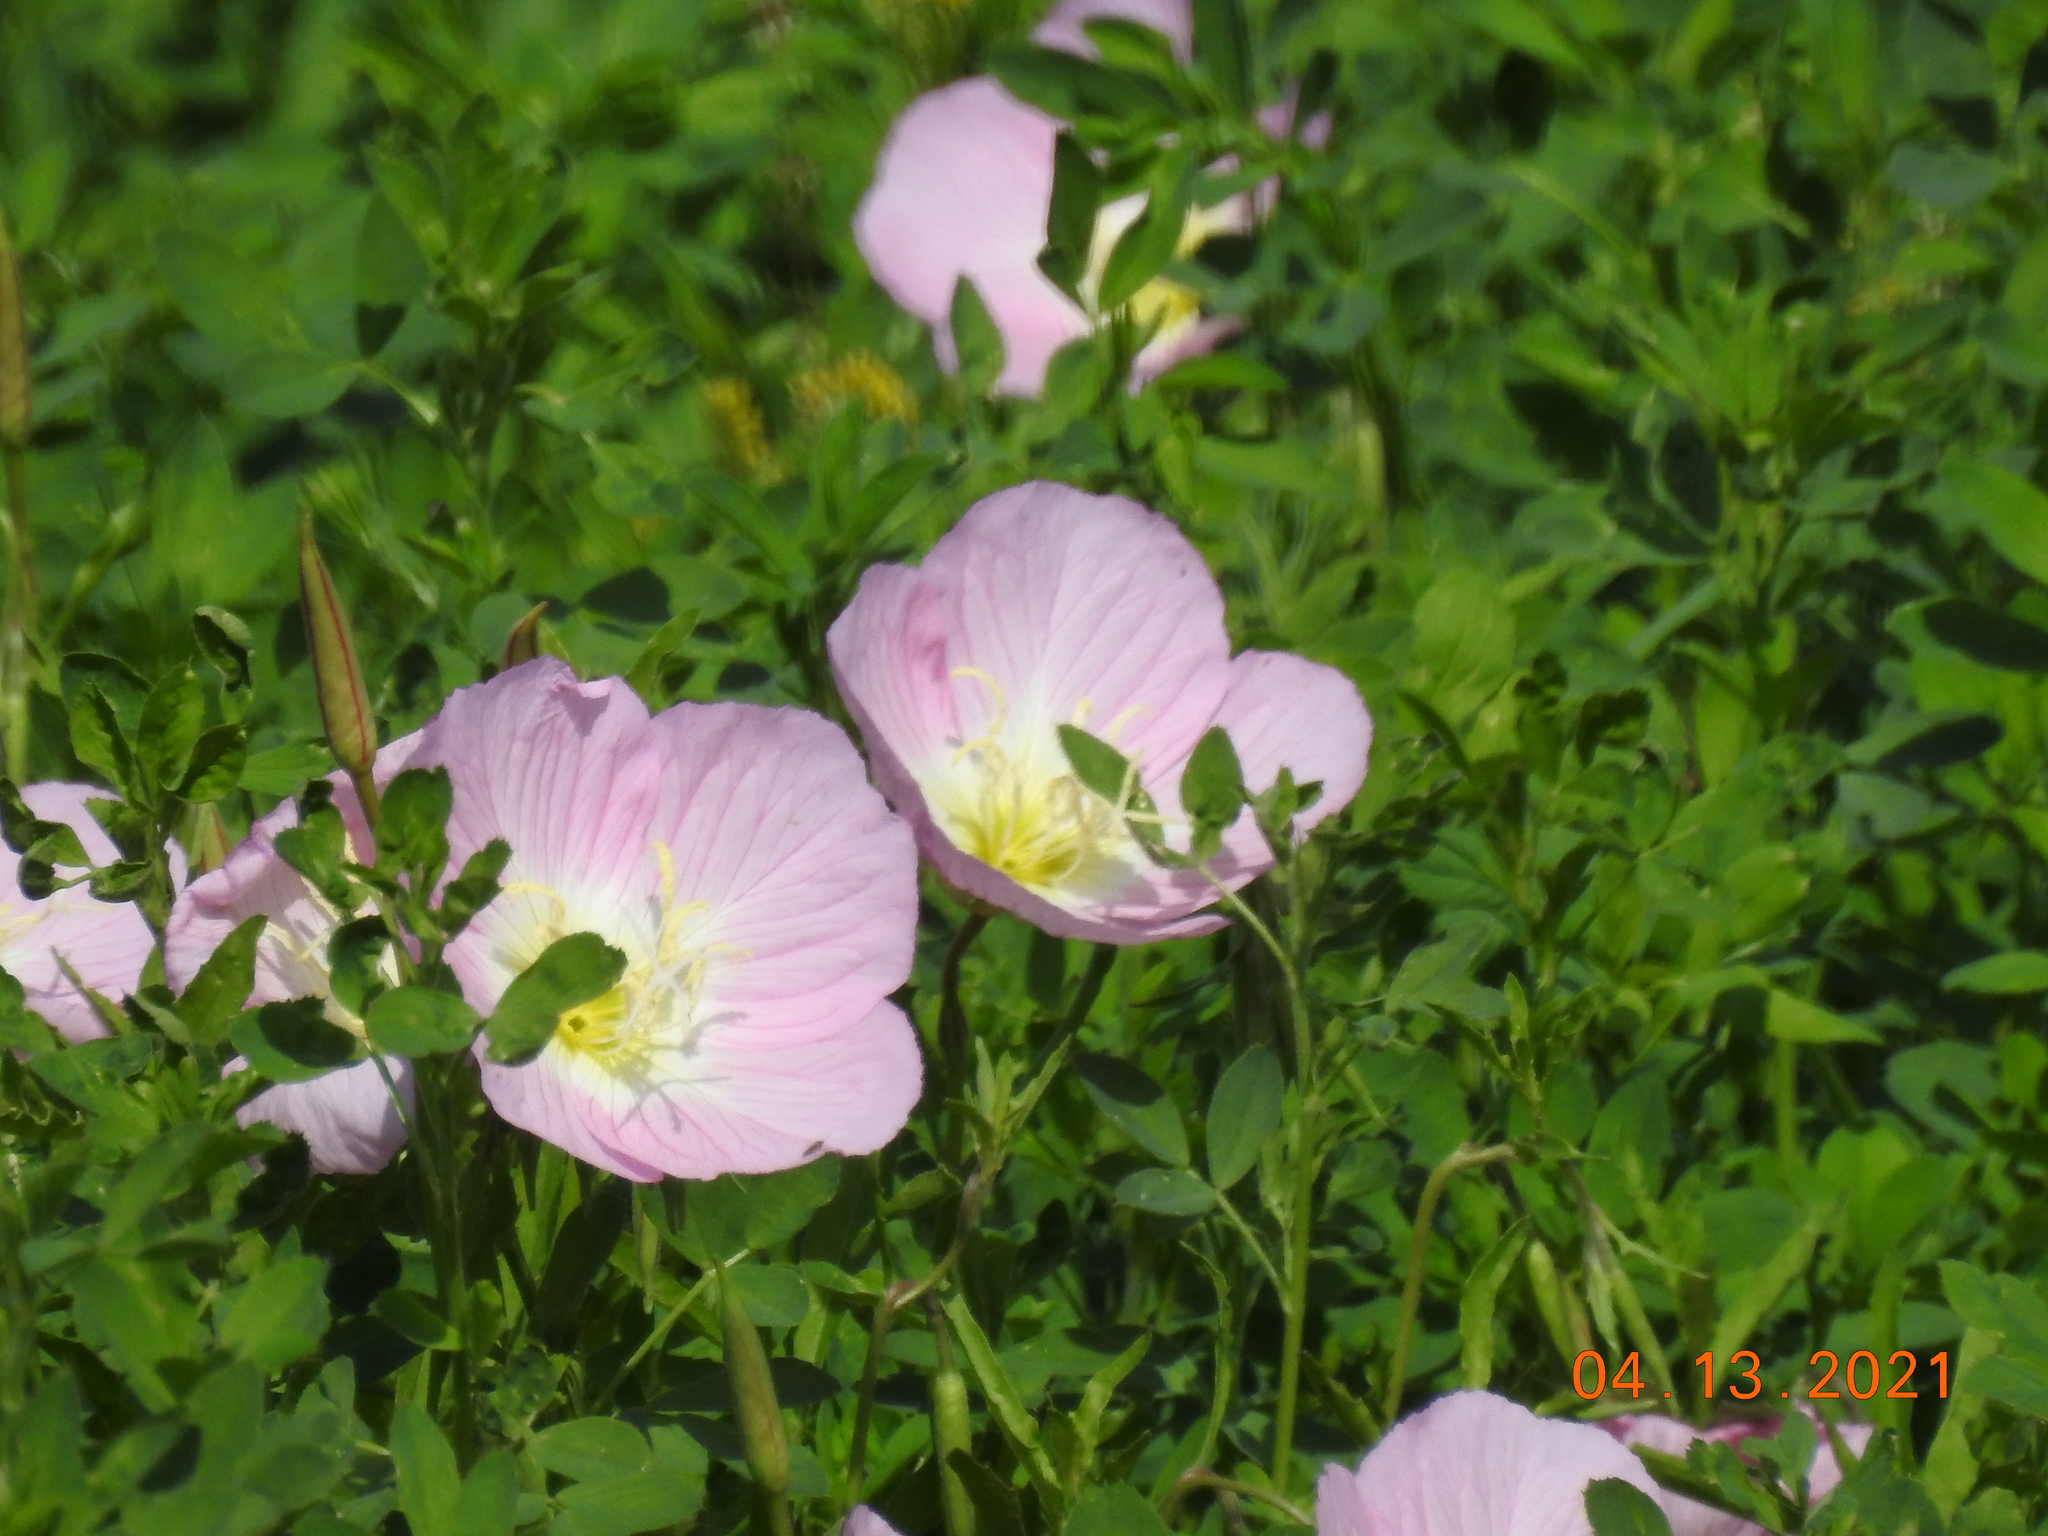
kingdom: Plantae
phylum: Tracheophyta
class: Magnoliopsida
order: Myrtales
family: Onagraceae
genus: Oenothera
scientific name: Oenothera speciosa
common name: White evening-primrose
